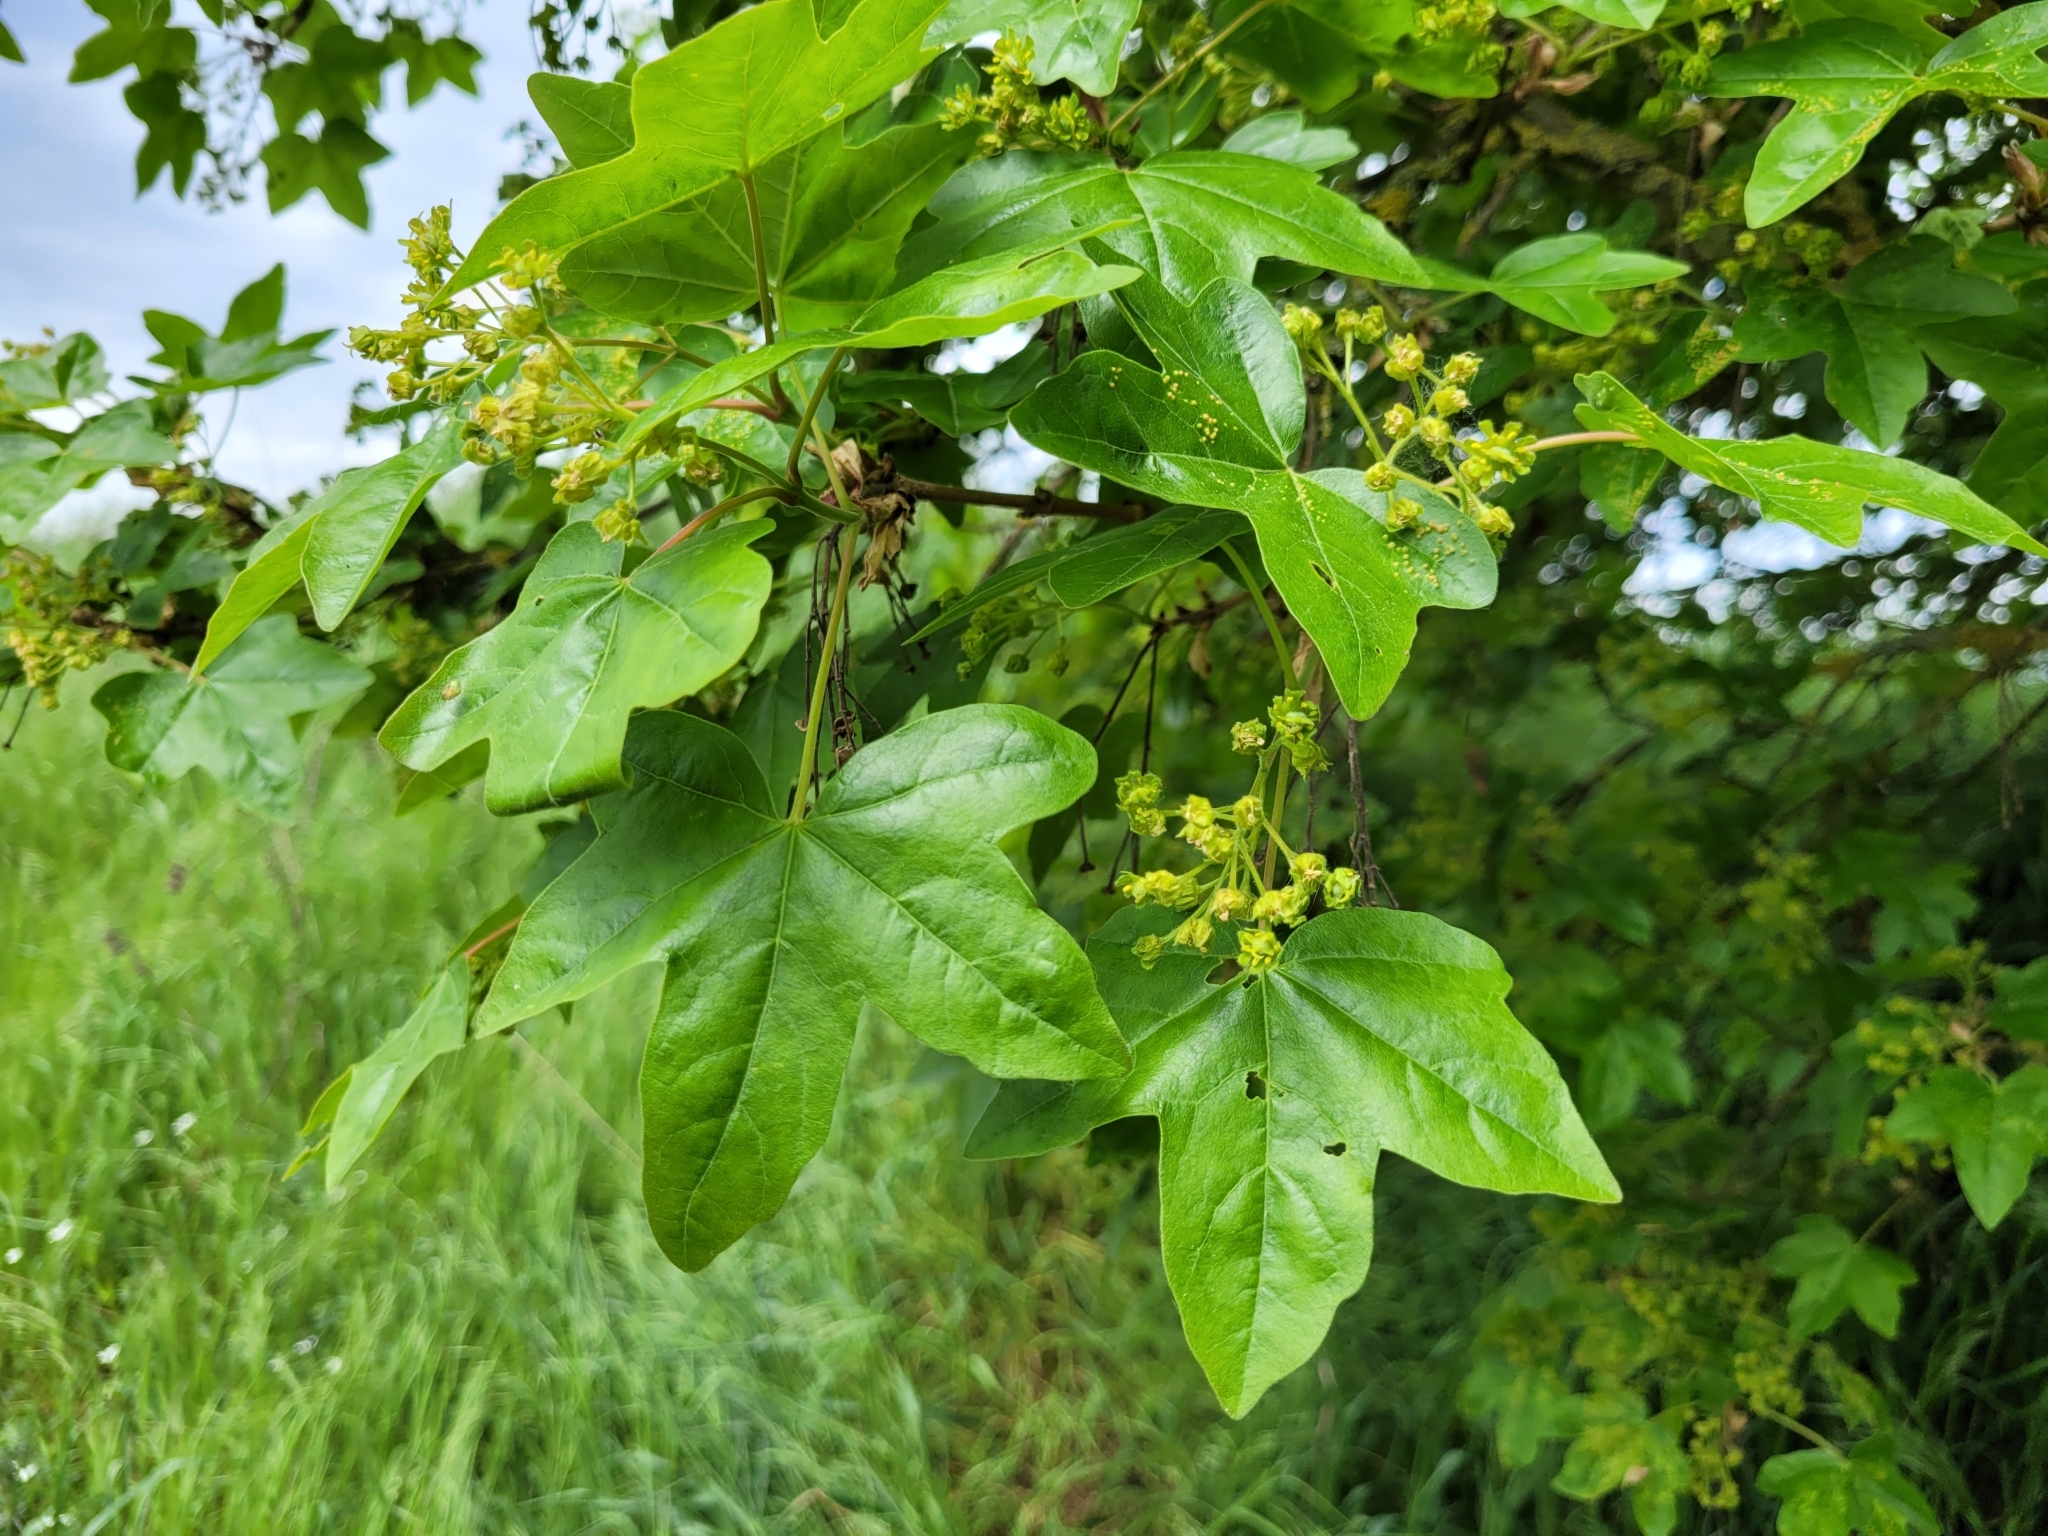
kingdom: Plantae
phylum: Tracheophyta
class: Magnoliopsida
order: Sapindales
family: Sapindaceae
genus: Acer
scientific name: Acer campestre
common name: Field maple
